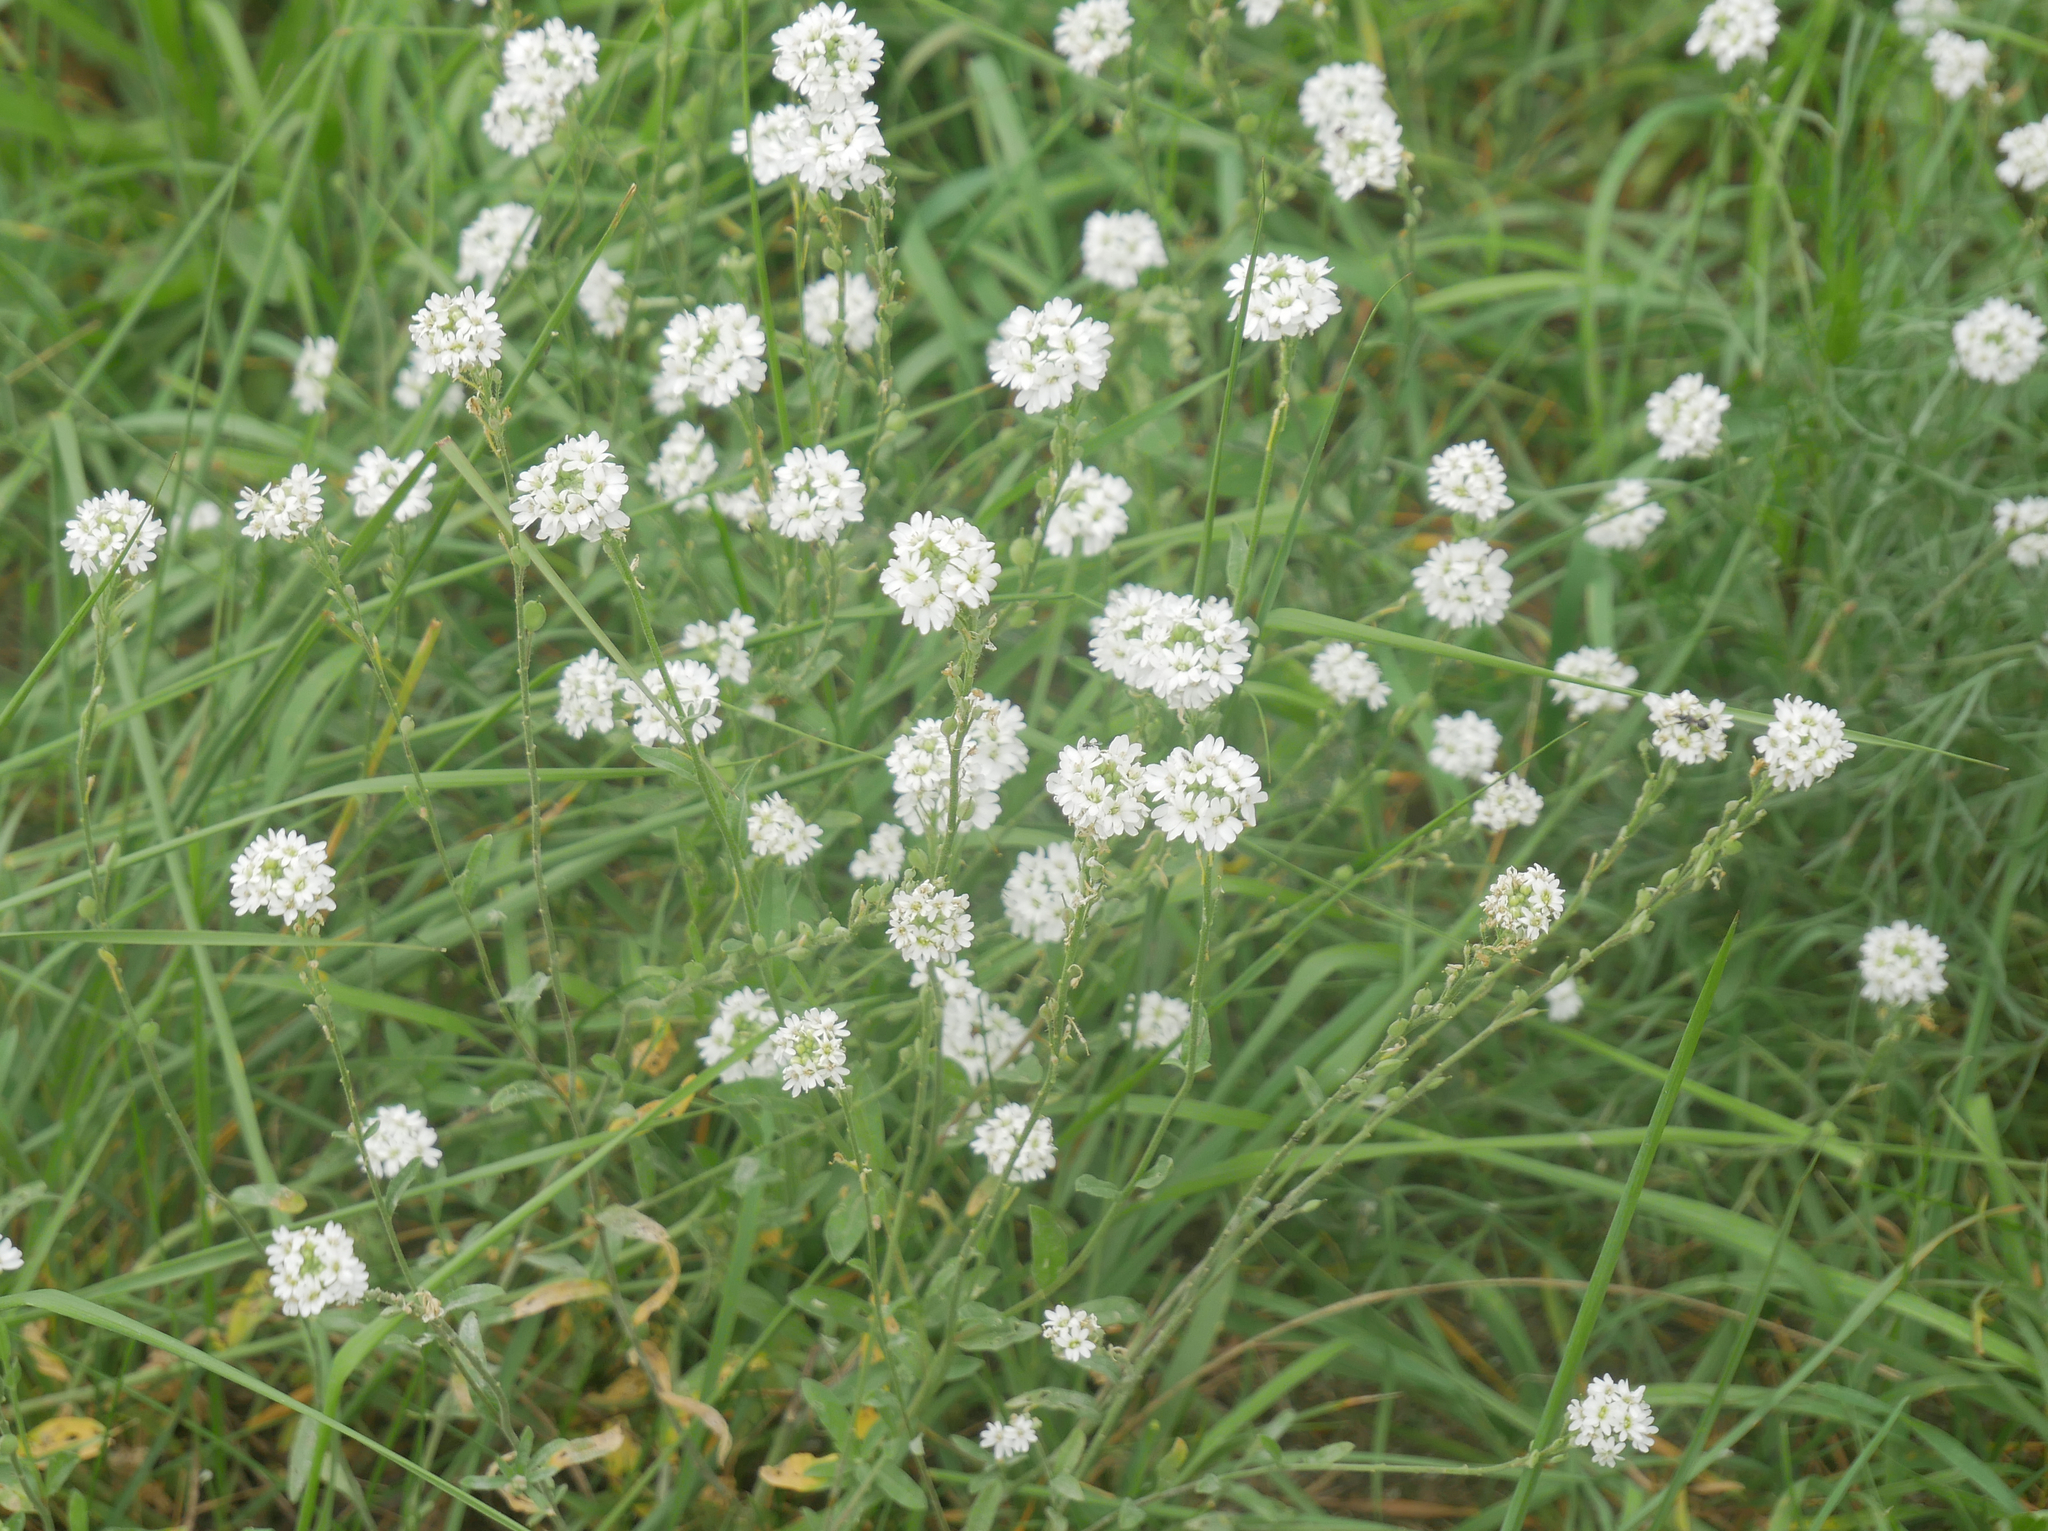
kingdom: Plantae
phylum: Tracheophyta
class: Magnoliopsida
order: Brassicales
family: Brassicaceae
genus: Berteroa
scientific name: Berteroa incana
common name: Hoary alison
